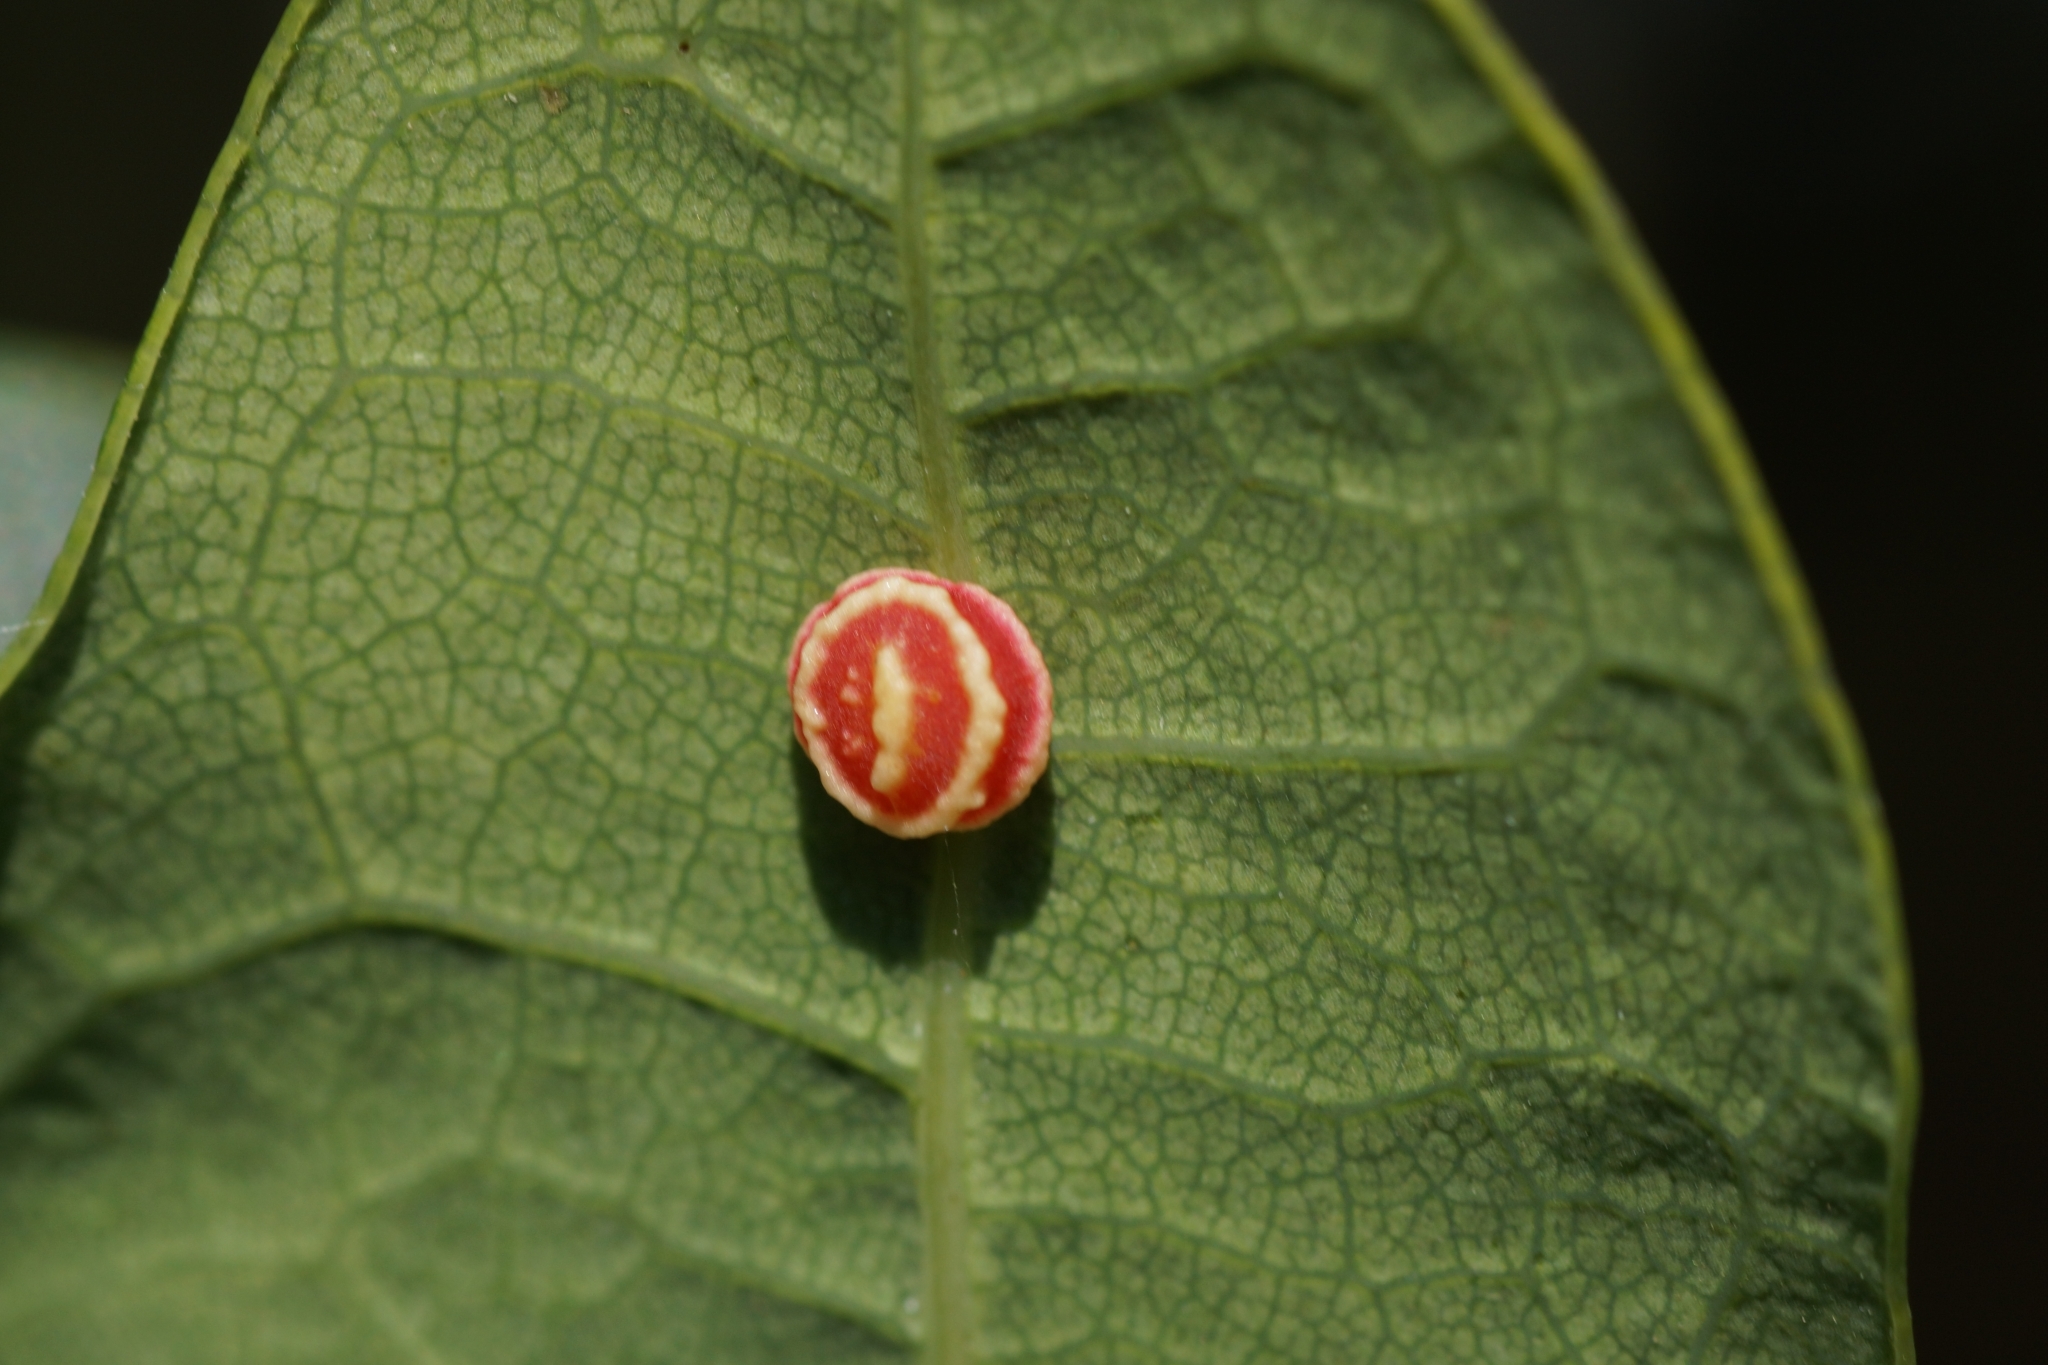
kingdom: Animalia
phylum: Arthropoda
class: Insecta
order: Hymenoptera
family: Cynipidae
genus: Cynips
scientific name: Cynips longiventris
